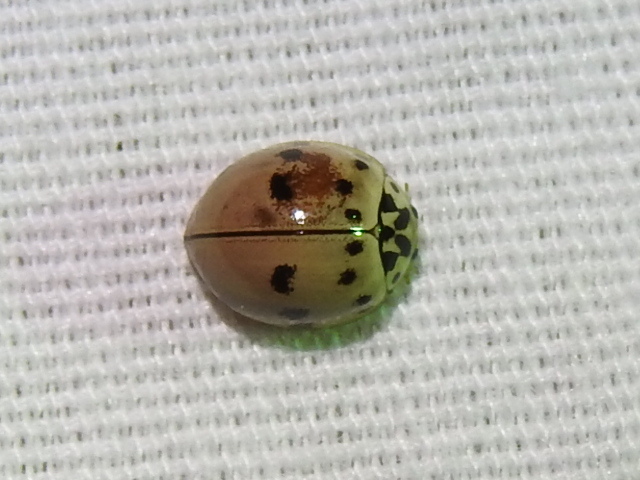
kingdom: Animalia
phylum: Arthropoda
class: Insecta
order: Coleoptera
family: Coccinellidae
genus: Olla
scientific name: Olla v-nigrum
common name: Ashy gray lady beetle
